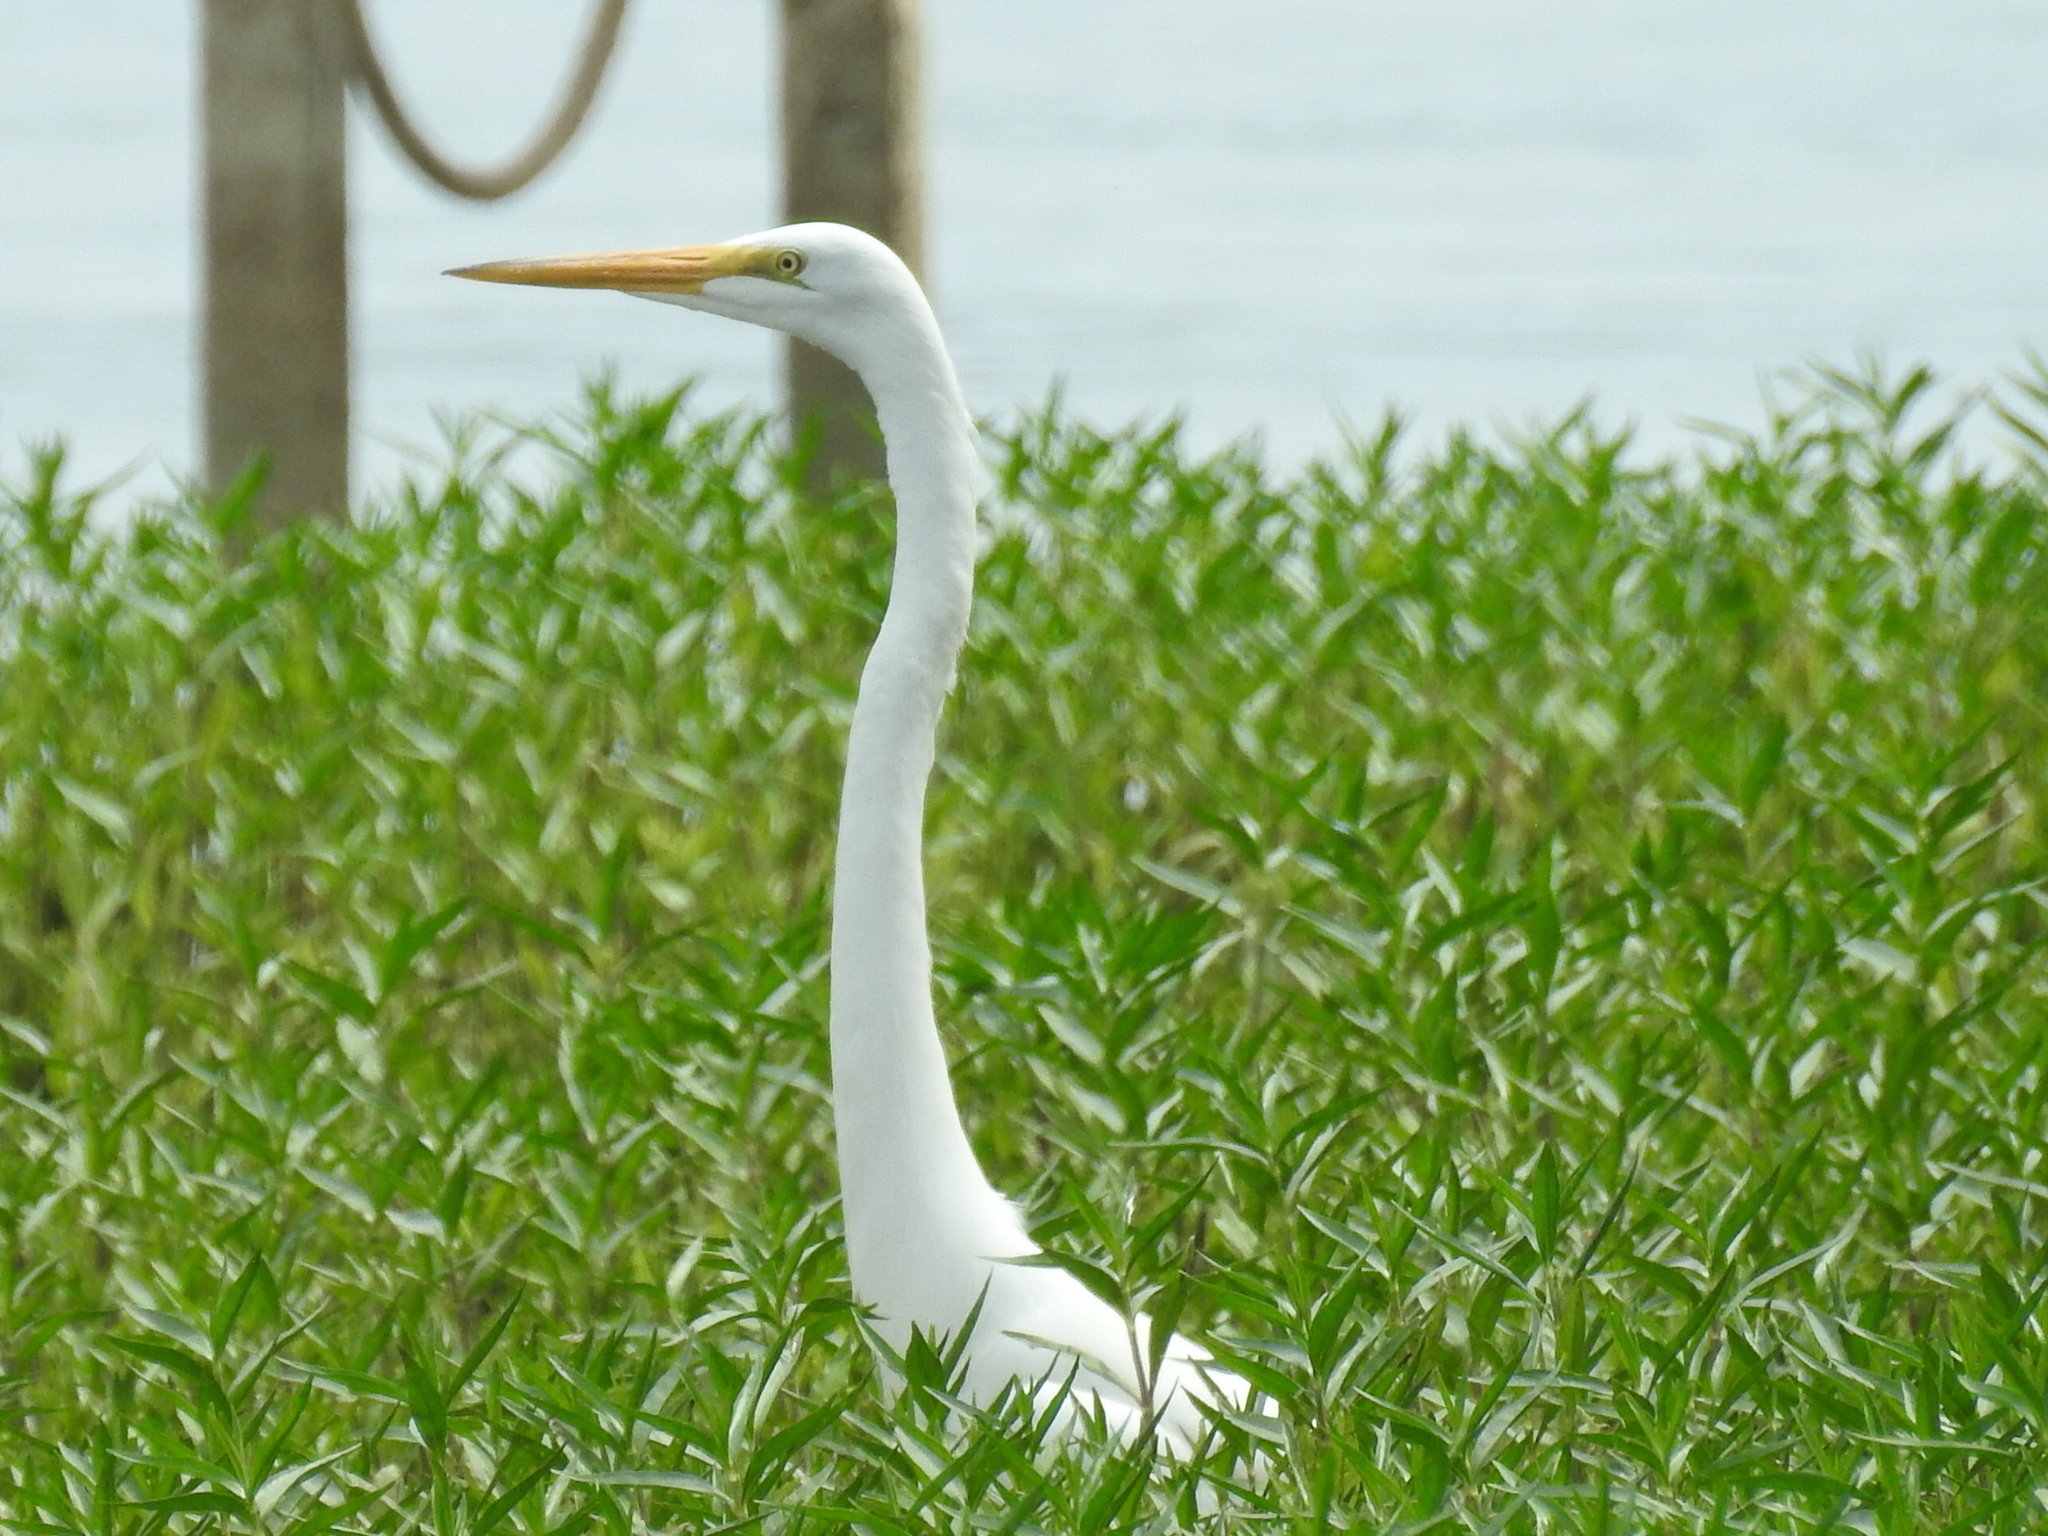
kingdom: Animalia
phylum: Chordata
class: Aves
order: Pelecaniformes
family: Ardeidae
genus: Ardea
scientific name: Ardea alba
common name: Great egret
